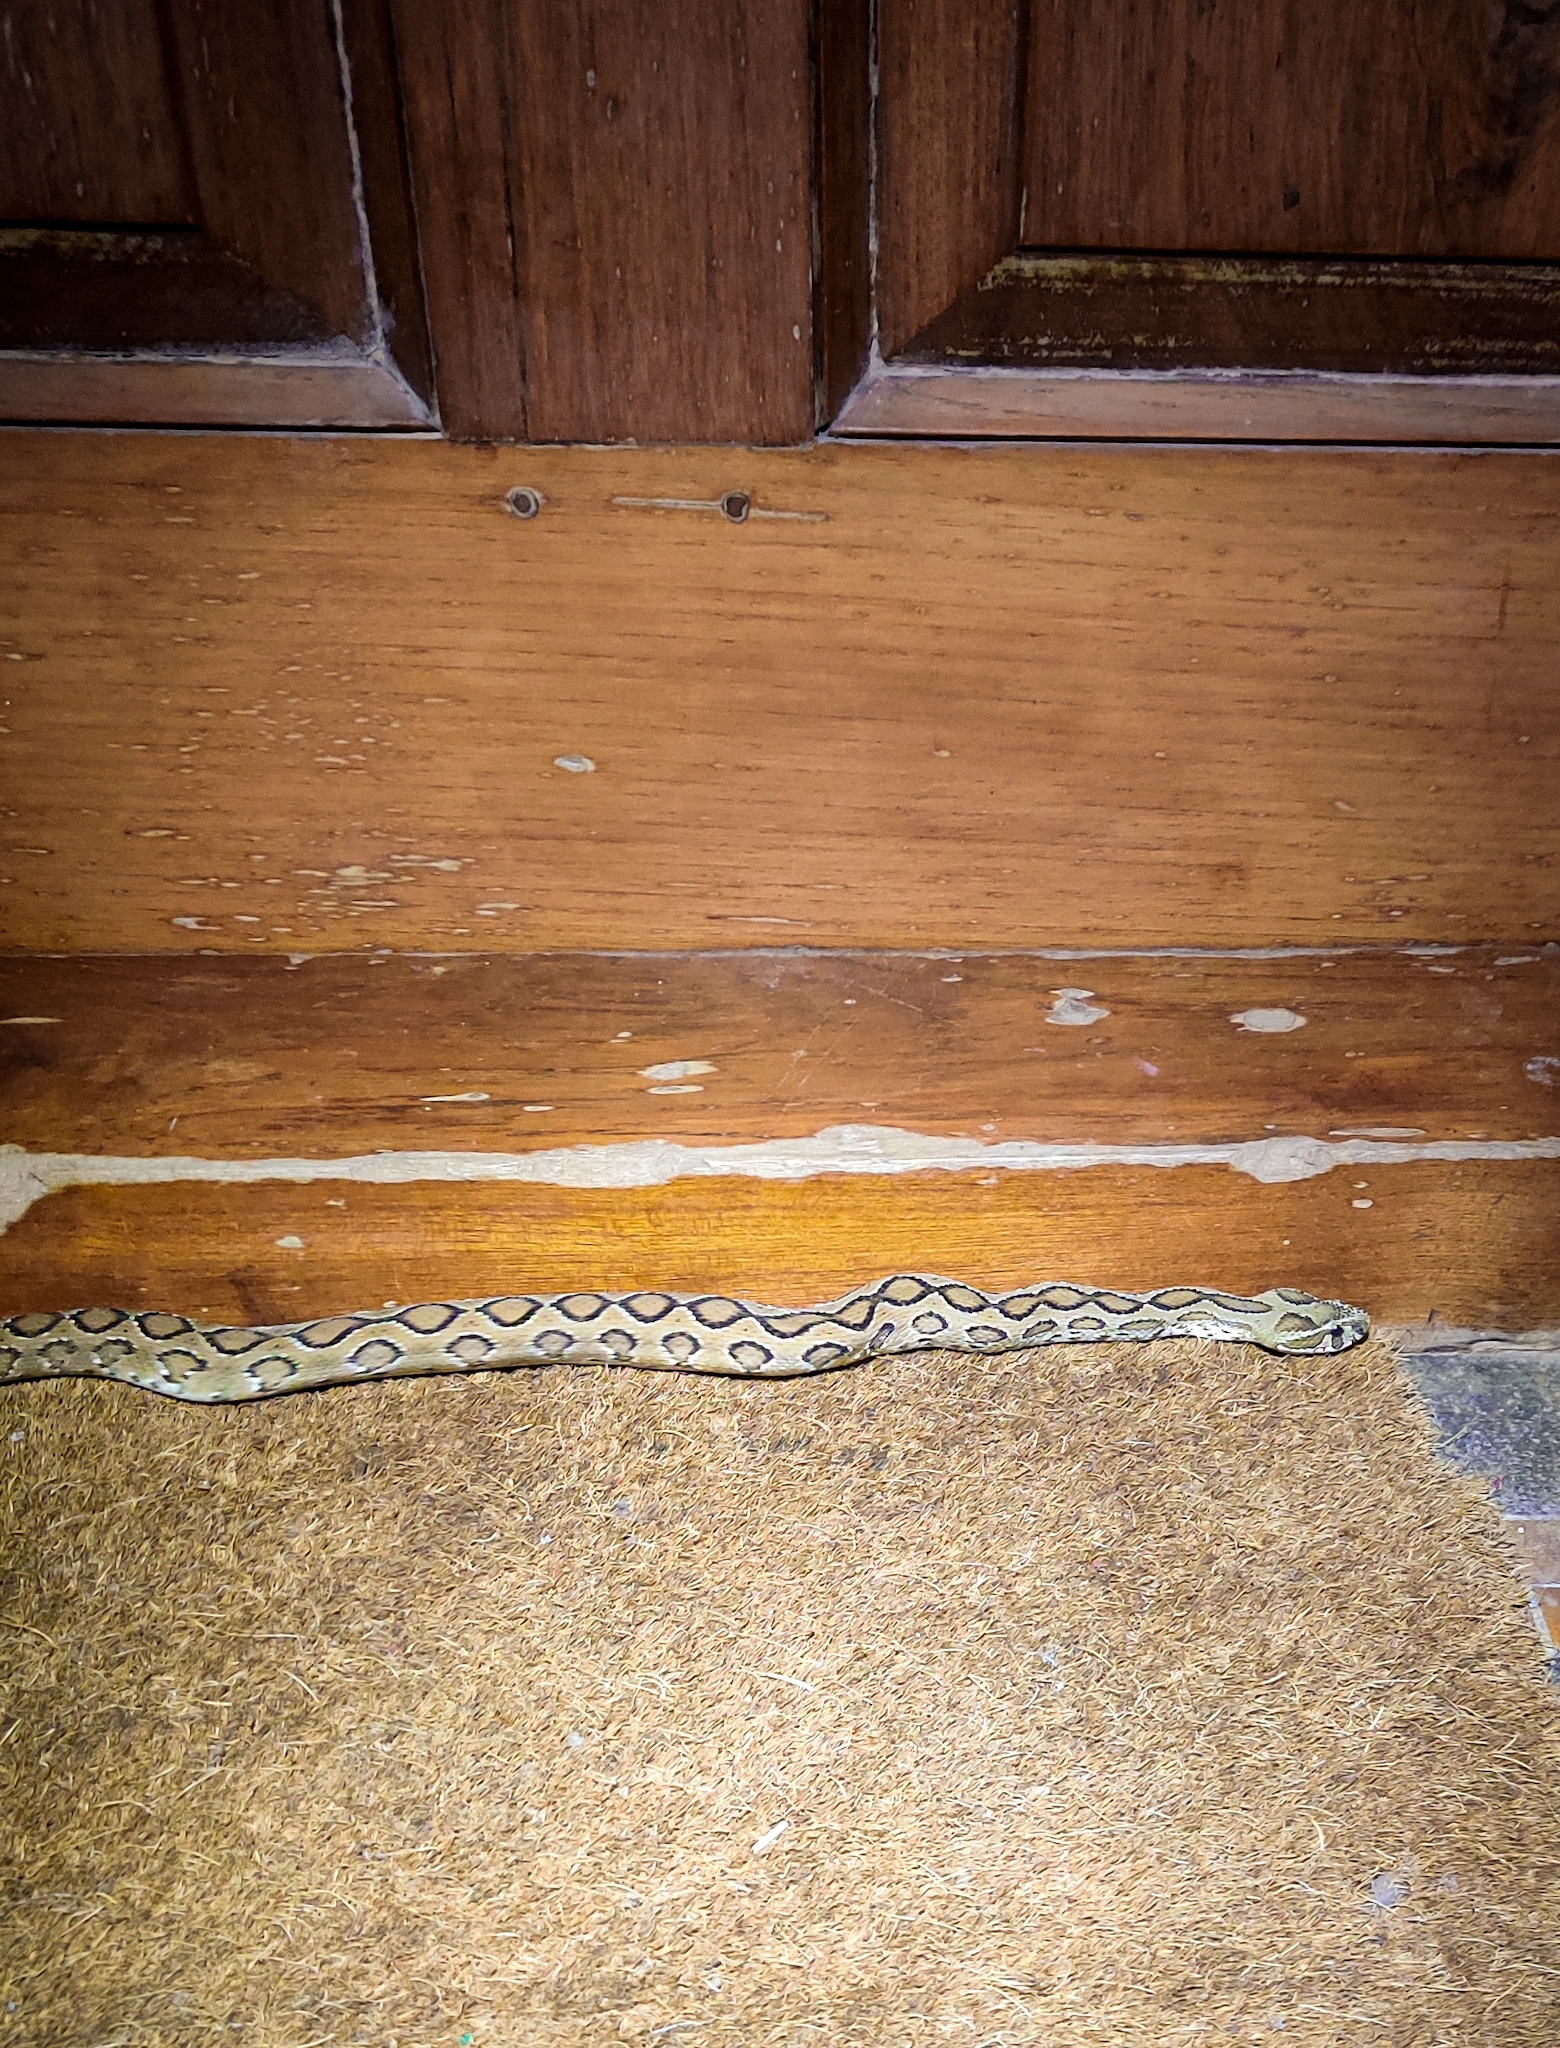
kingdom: Animalia
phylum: Chordata
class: Squamata
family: Viperidae
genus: Daboia
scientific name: Daboia russelii
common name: Western russel’s viper
